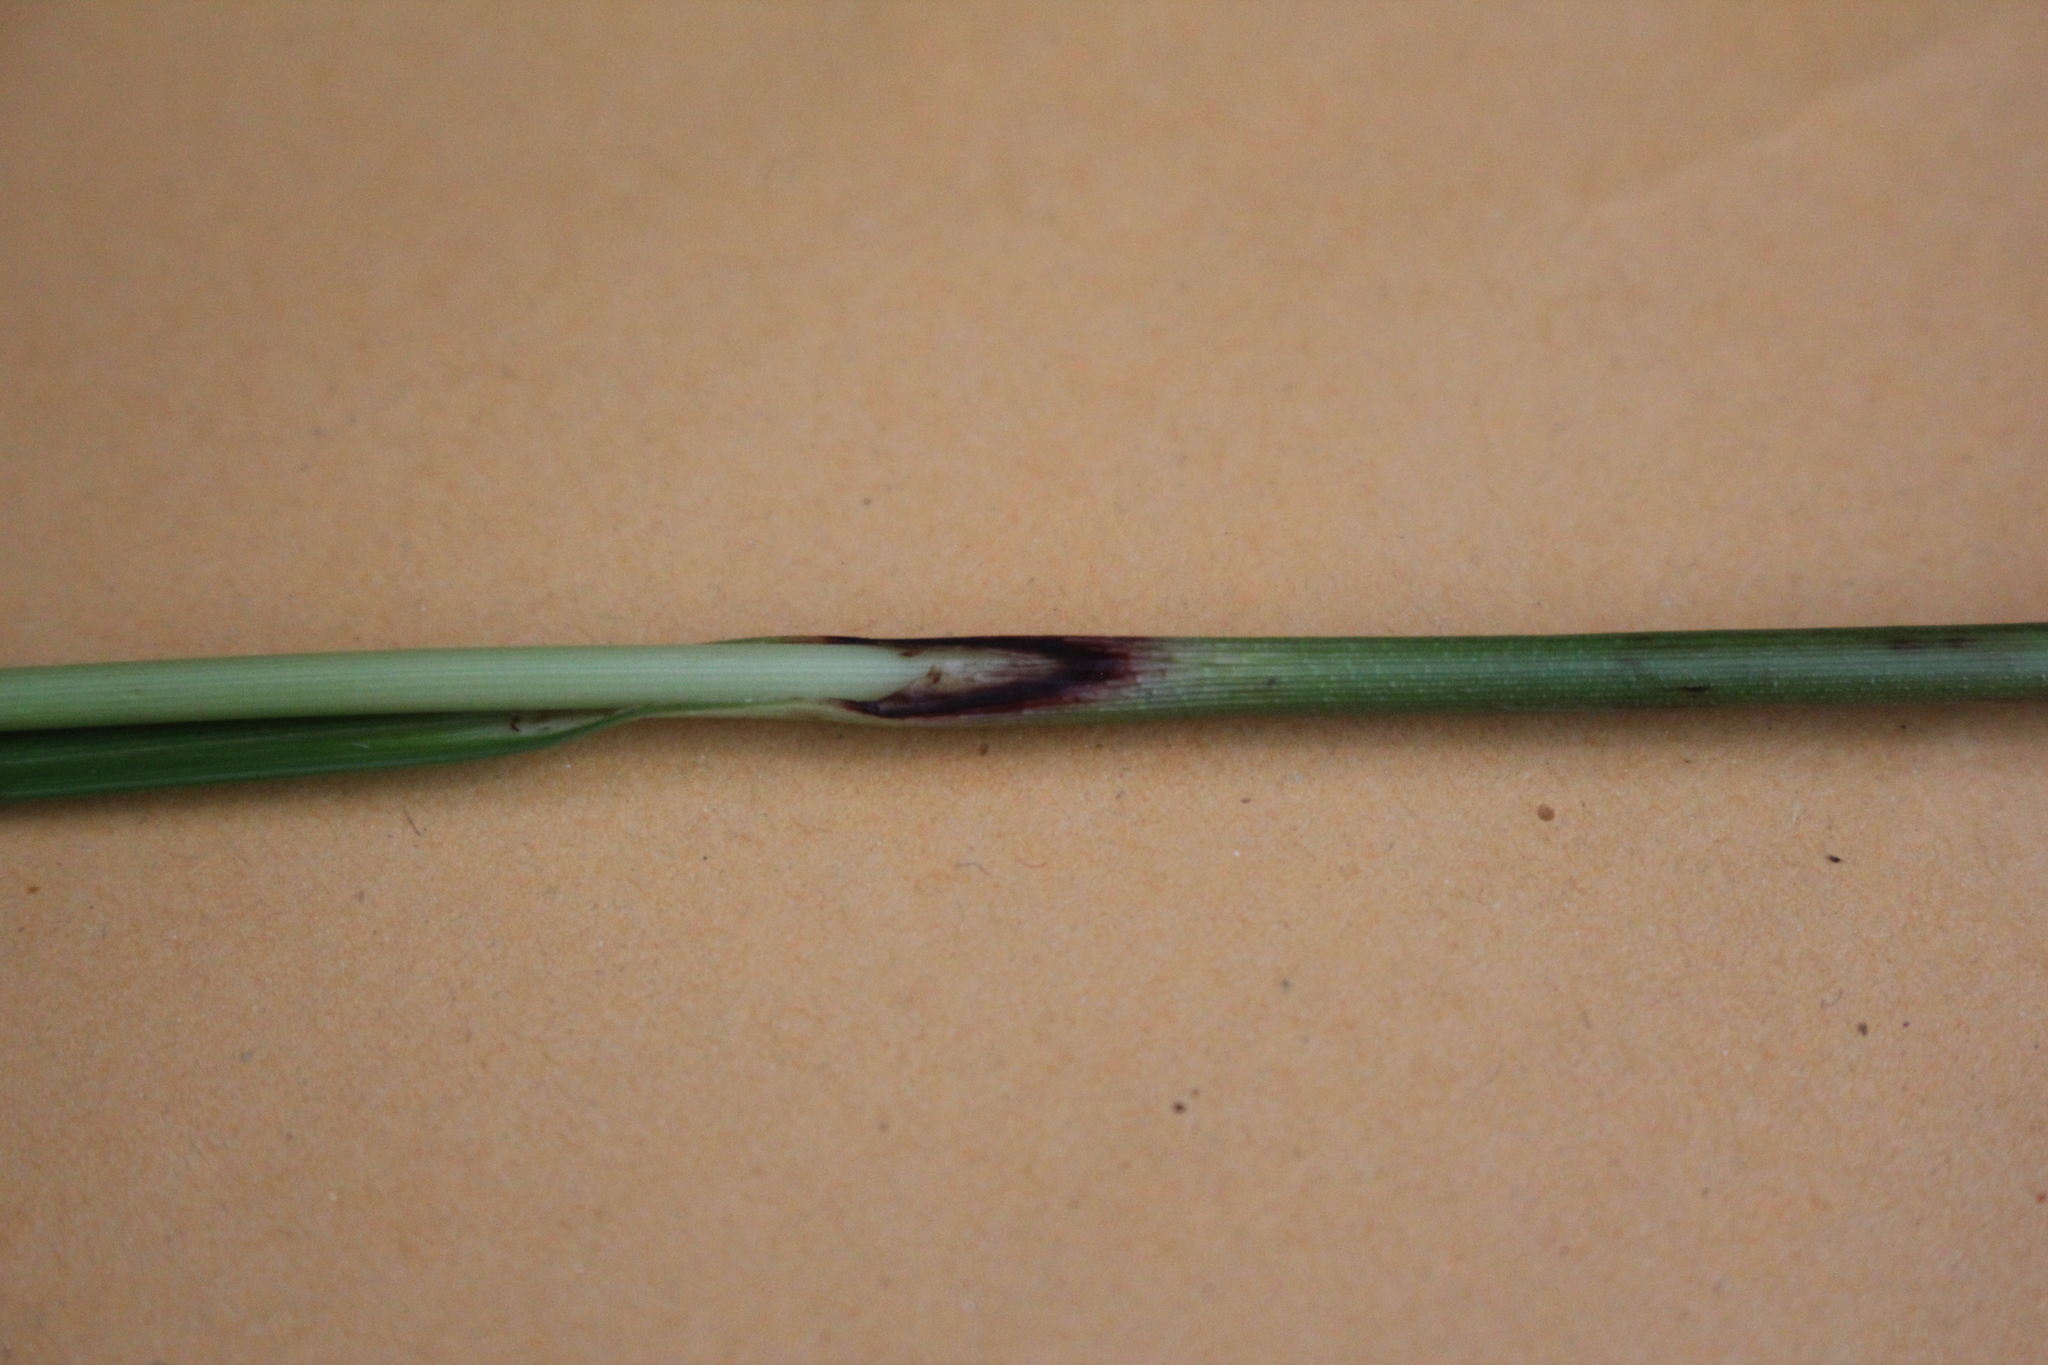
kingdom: Plantae
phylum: Tracheophyta
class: Liliopsida
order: Poales
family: Cyperaceae
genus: Eriophorum
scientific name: Eriophorum angustifolium
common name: Common cottongrass
